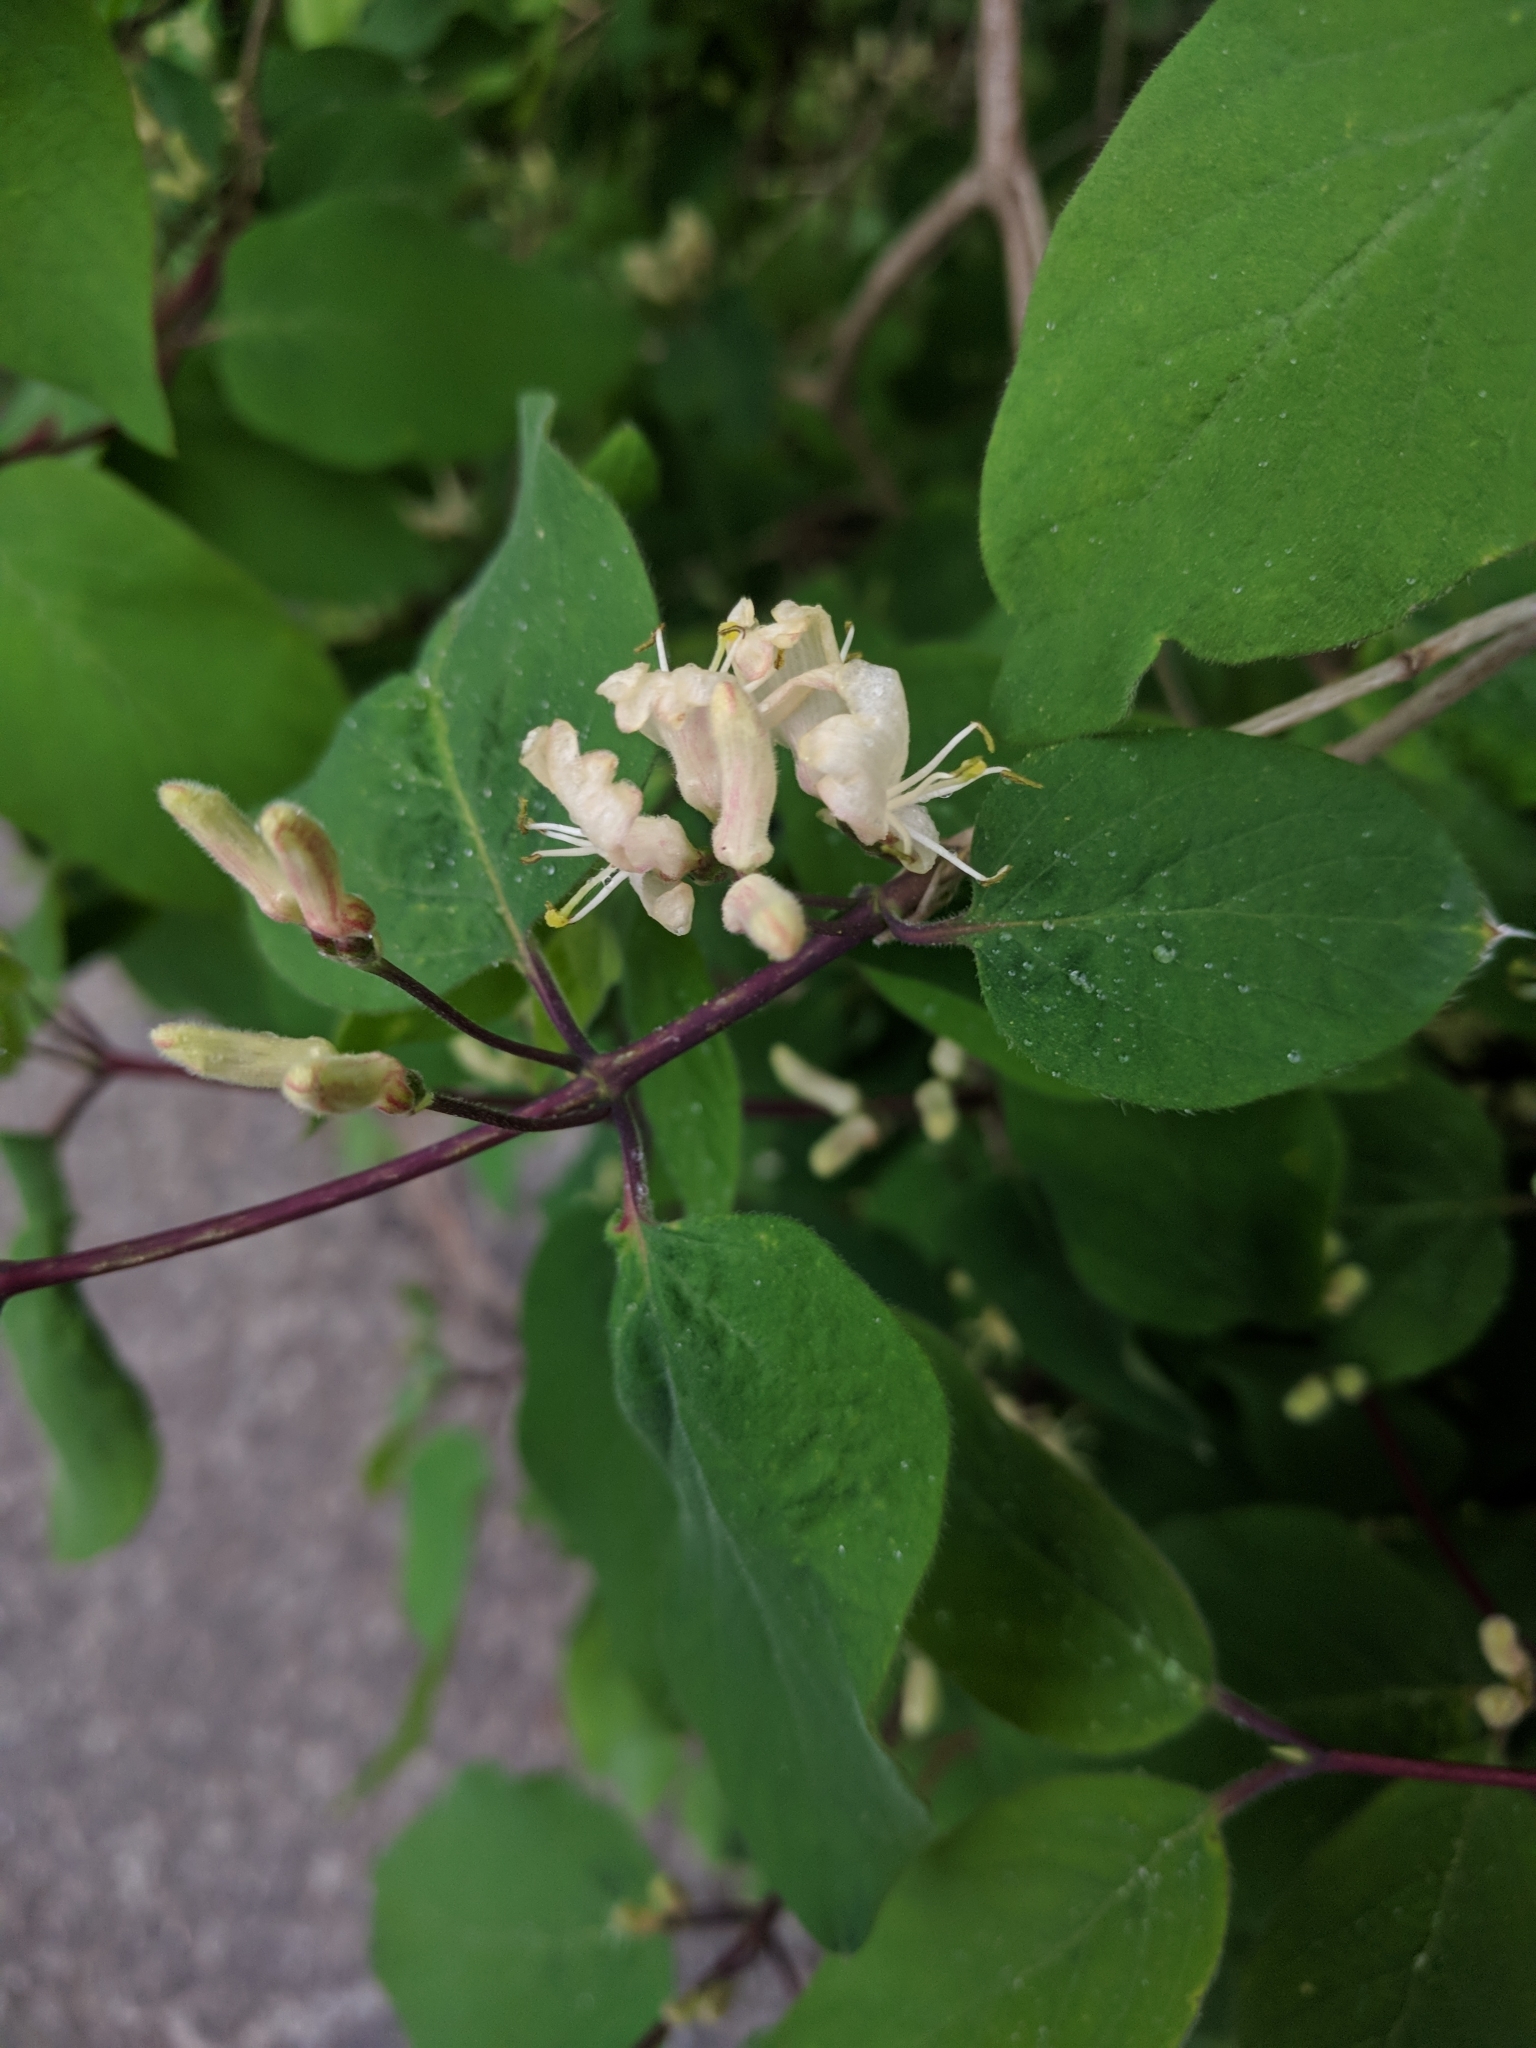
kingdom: Plantae
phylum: Tracheophyta
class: Magnoliopsida
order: Dipsacales
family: Caprifoliaceae
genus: Lonicera
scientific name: Lonicera xylosteum
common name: Fly honeysuckle
